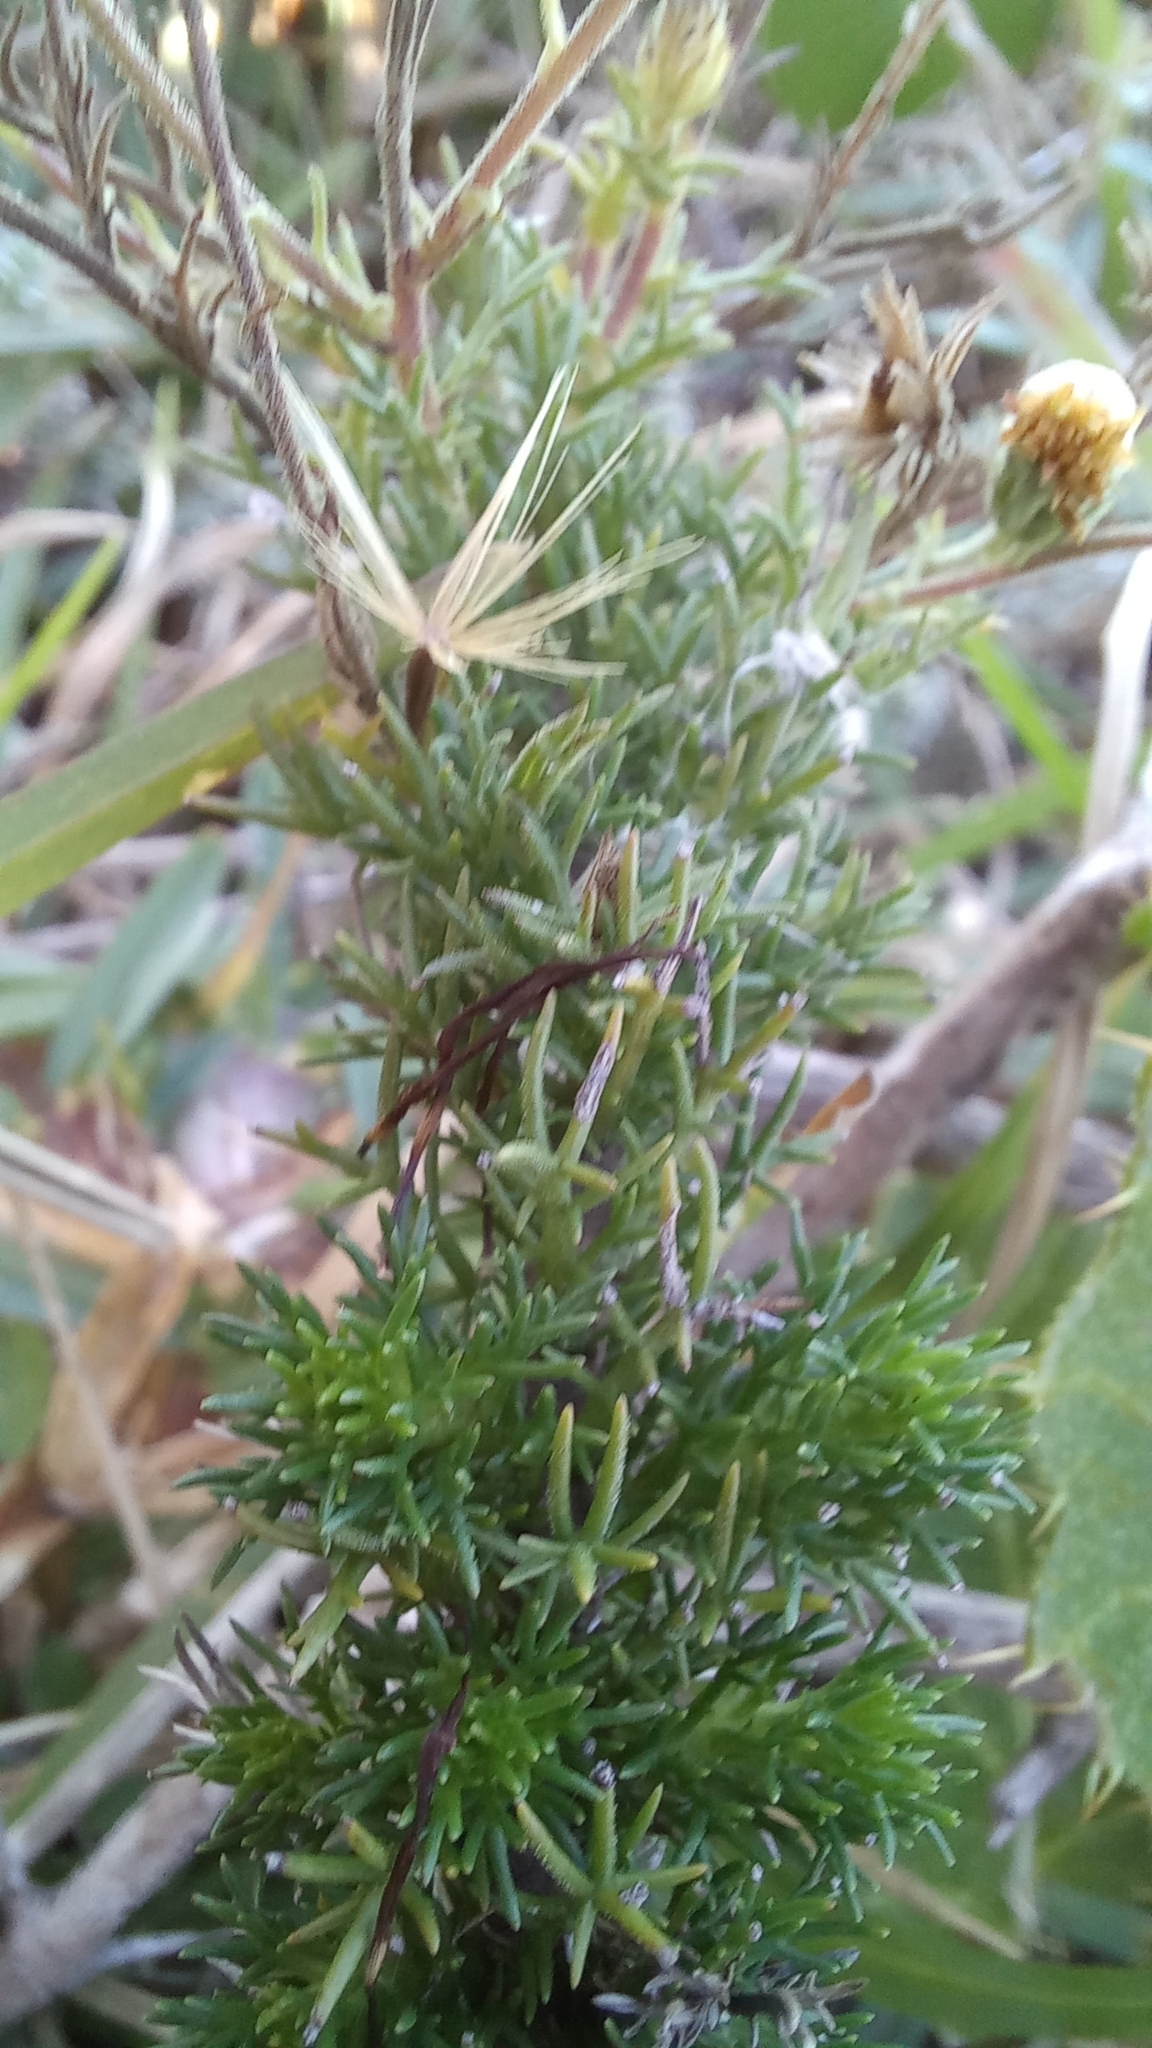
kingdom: Plantae
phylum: Tracheophyta
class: Magnoliopsida
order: Asterales
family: Asteraceae
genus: Sommerfeltia
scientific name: Sommerfeltia spinulosa
